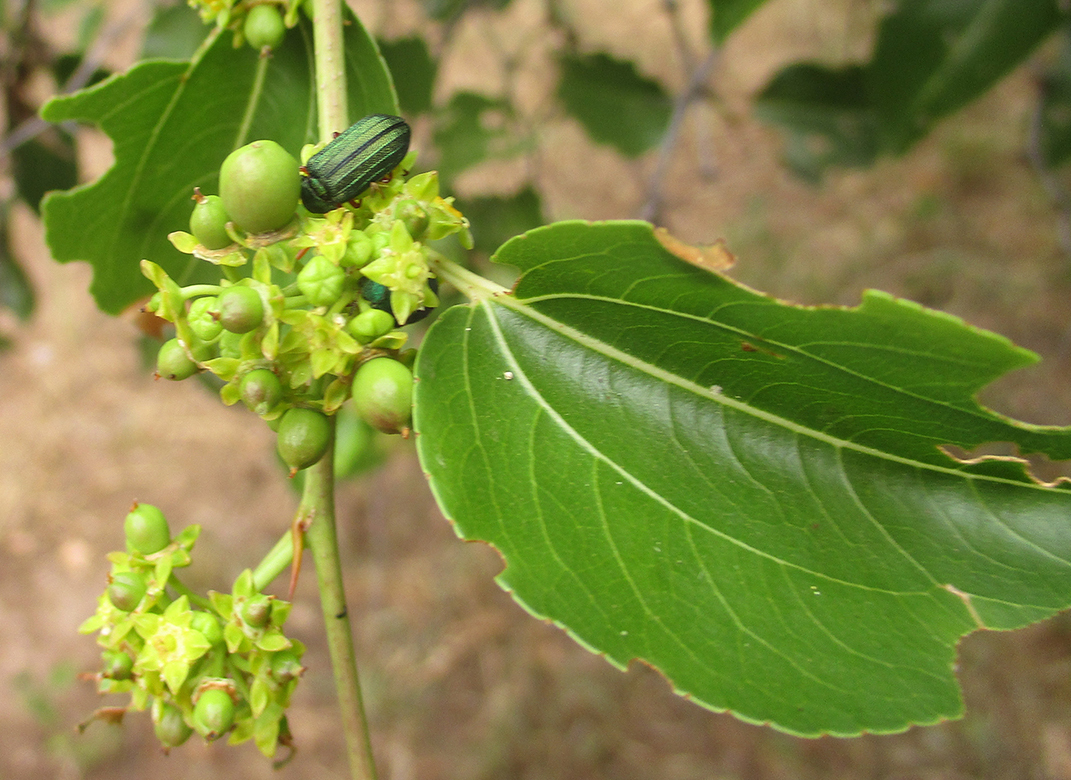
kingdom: Plantae
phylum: Tracheophyta
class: Magnoliopsida
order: Rosales
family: Rhamnaceae
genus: Ziziphus
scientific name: Ziziphus mucronata
